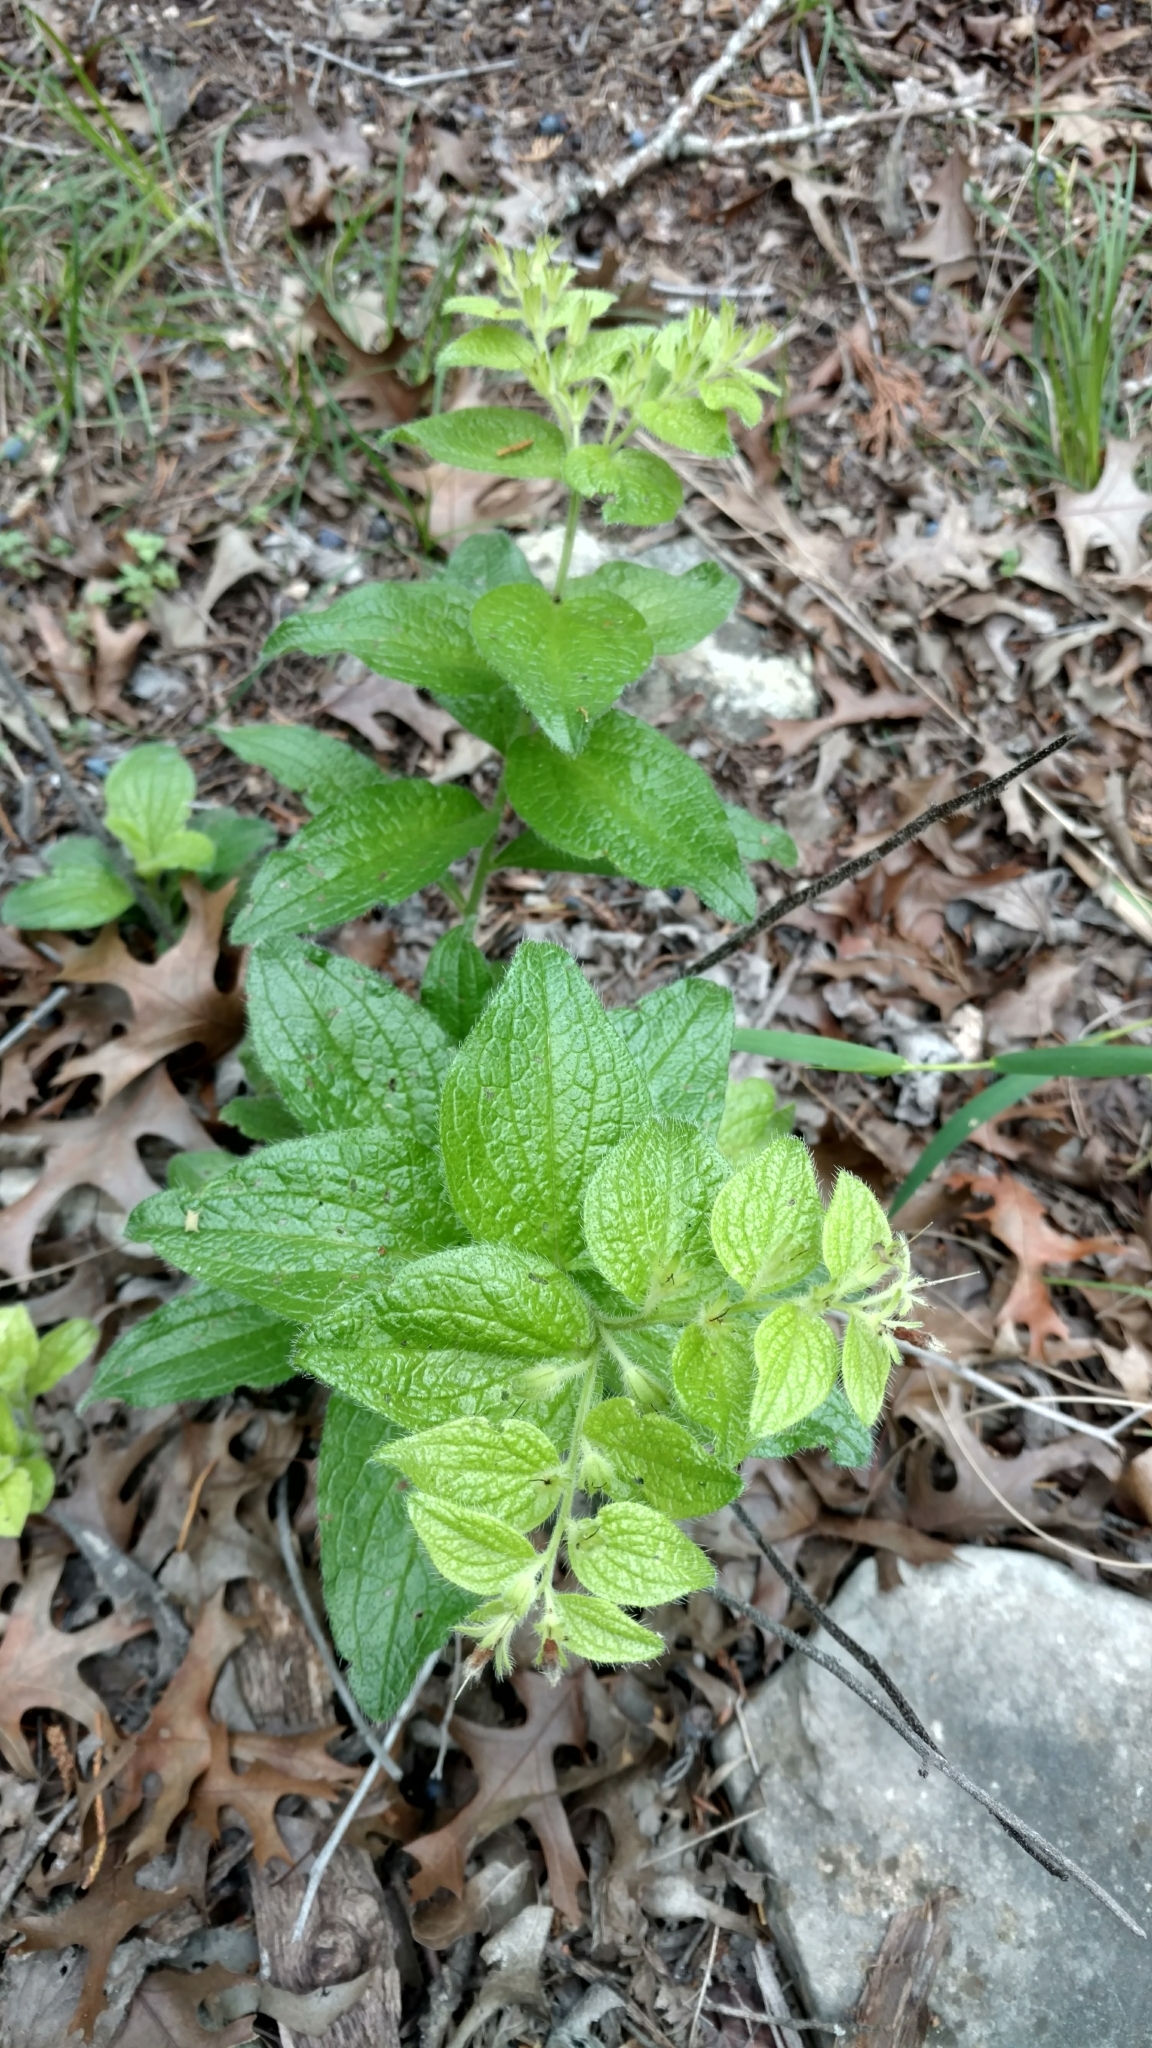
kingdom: Plantae
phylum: Tracheophyta
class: Magnoliopsida
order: Boraginales
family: Boraginaceae
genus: Lithospermum
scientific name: Lithospermum helleri
